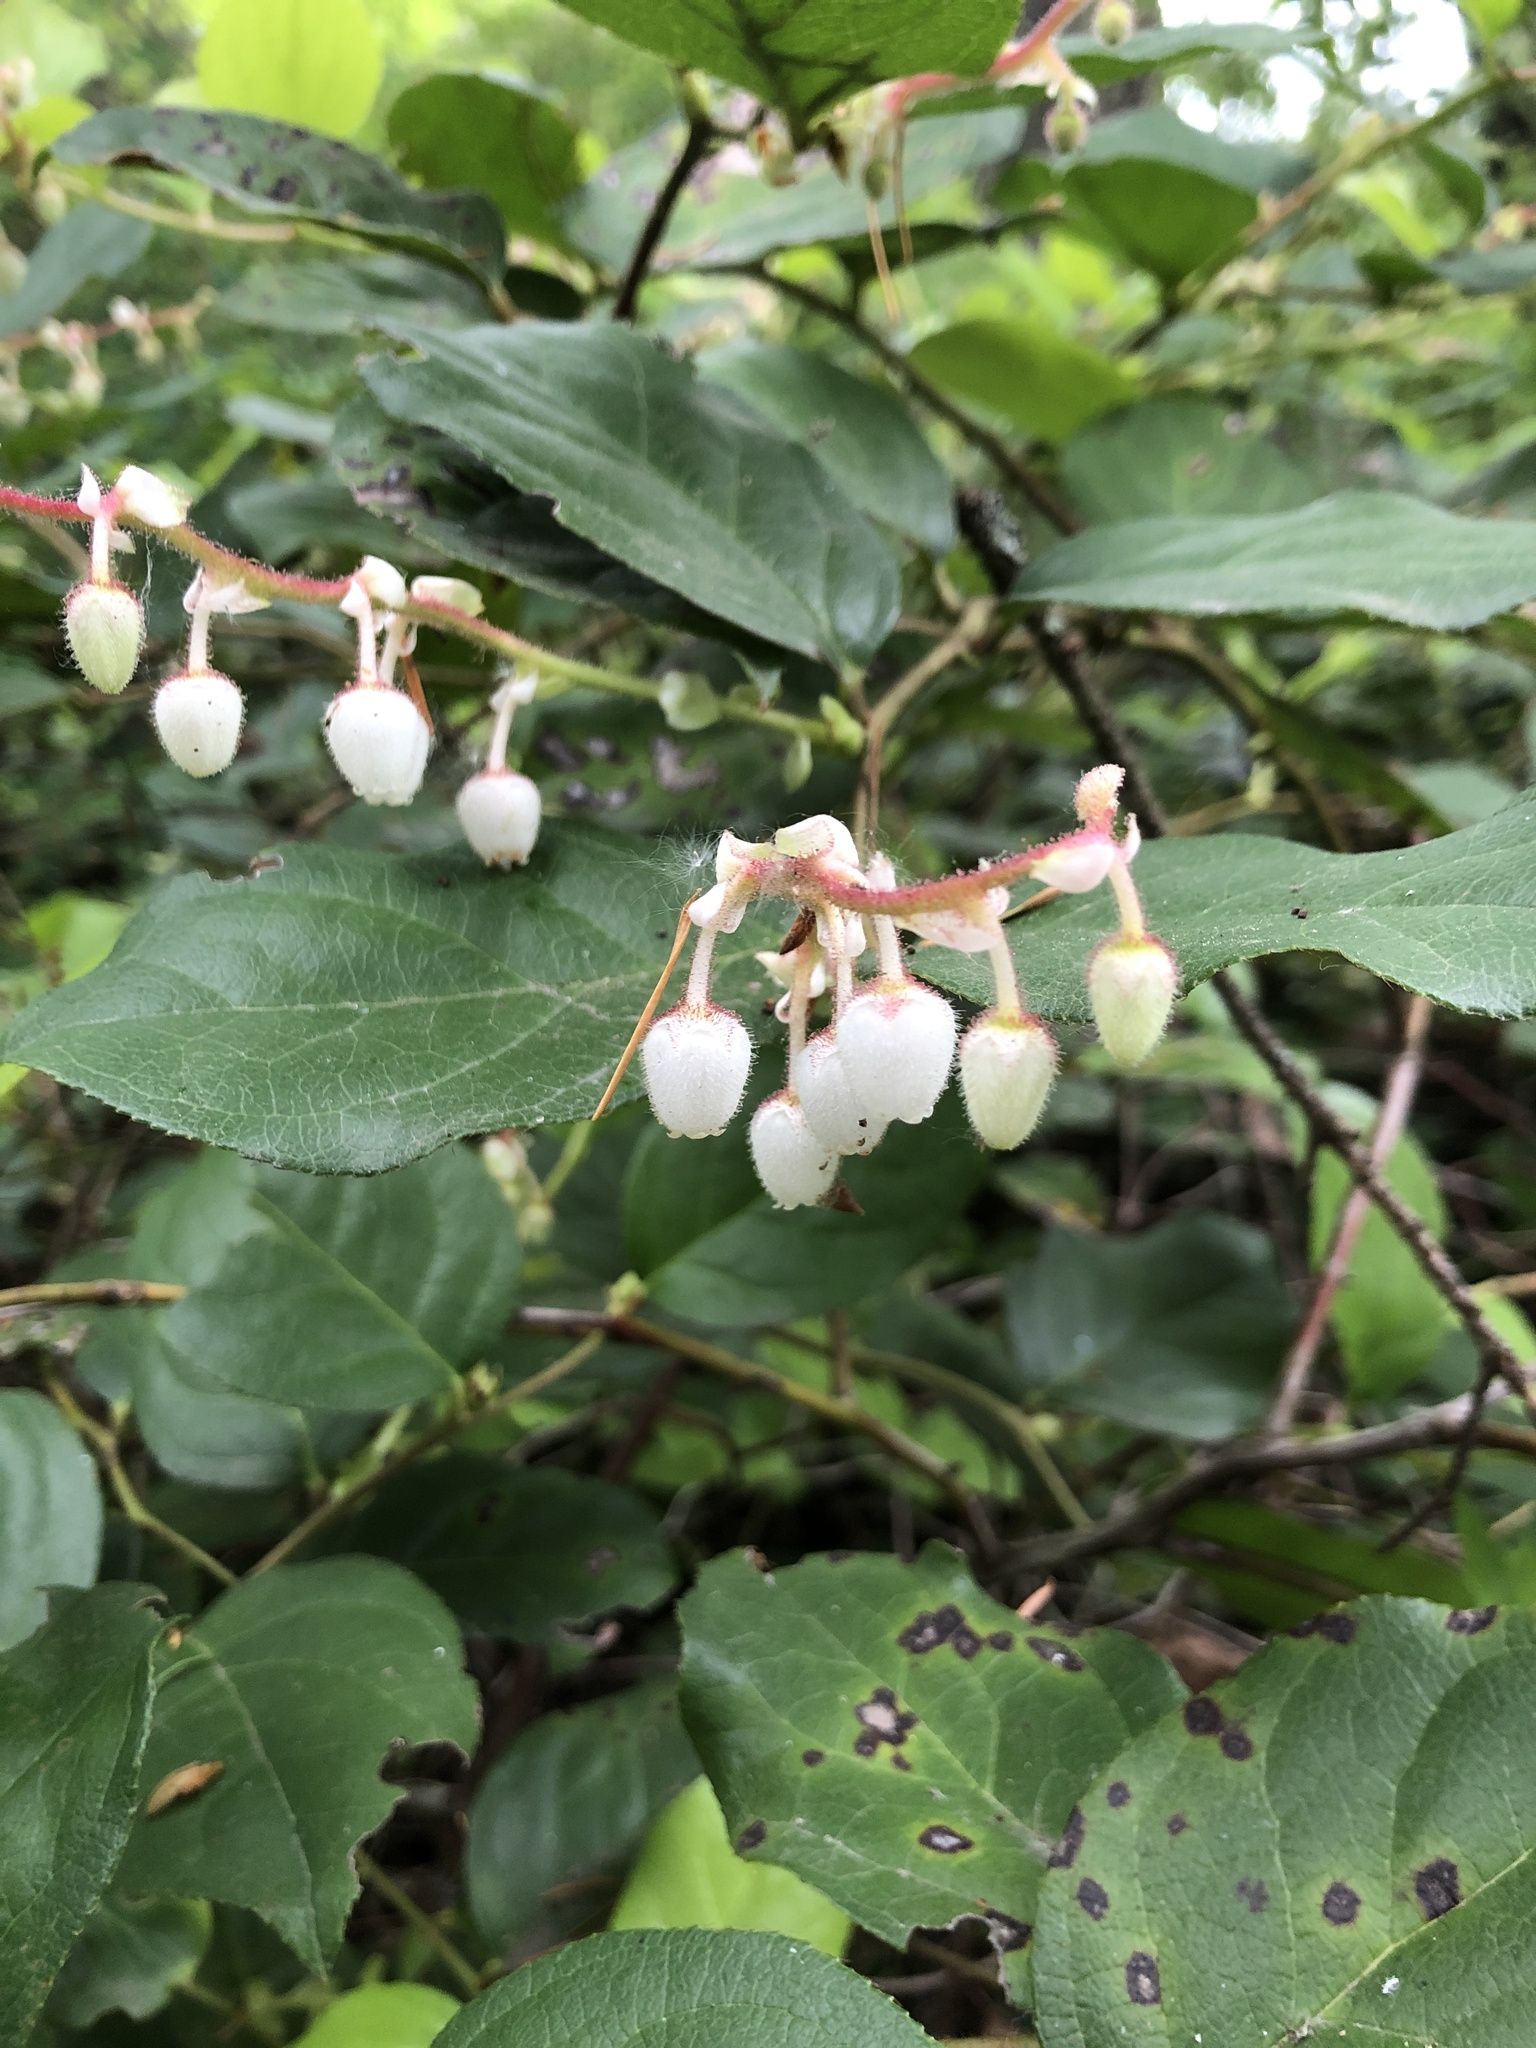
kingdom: Plantae
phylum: Tracheophyta
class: Magnoliopsida
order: Ericales
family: Ericaceae
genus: Gaultheria
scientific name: Gaultheria shallon
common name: Shallon
